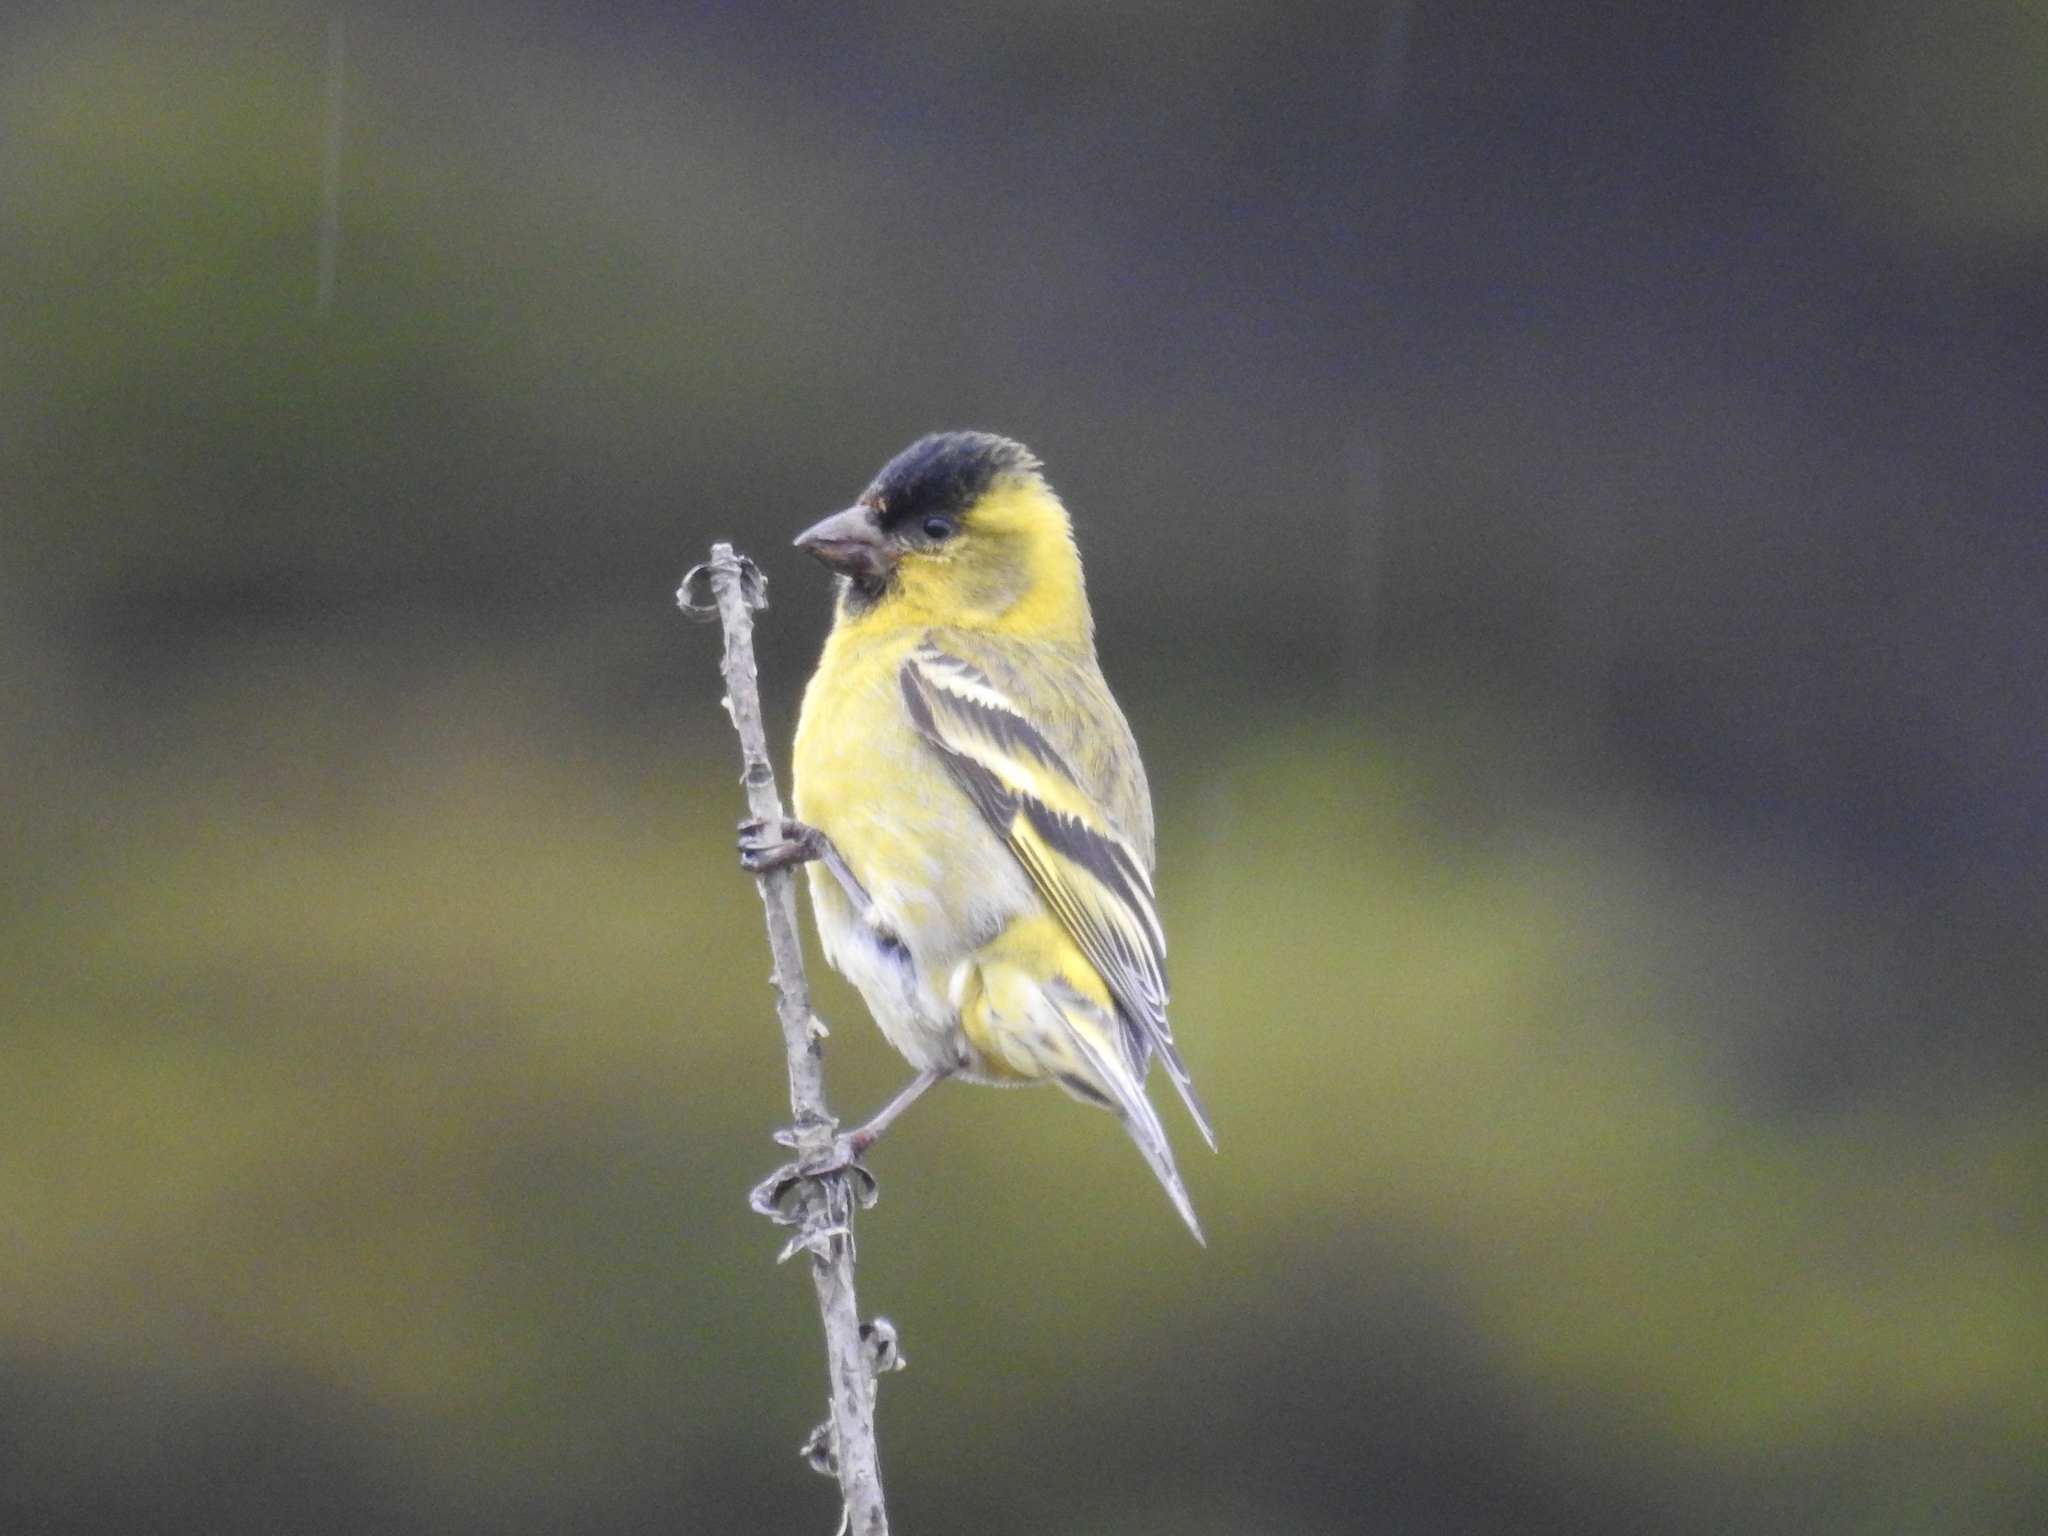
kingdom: Animalia
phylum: Chordata
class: Aves
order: Passeriformes
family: Fringillidae
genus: Spinus
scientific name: Spinus barbatus
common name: Black-chinned siskin
